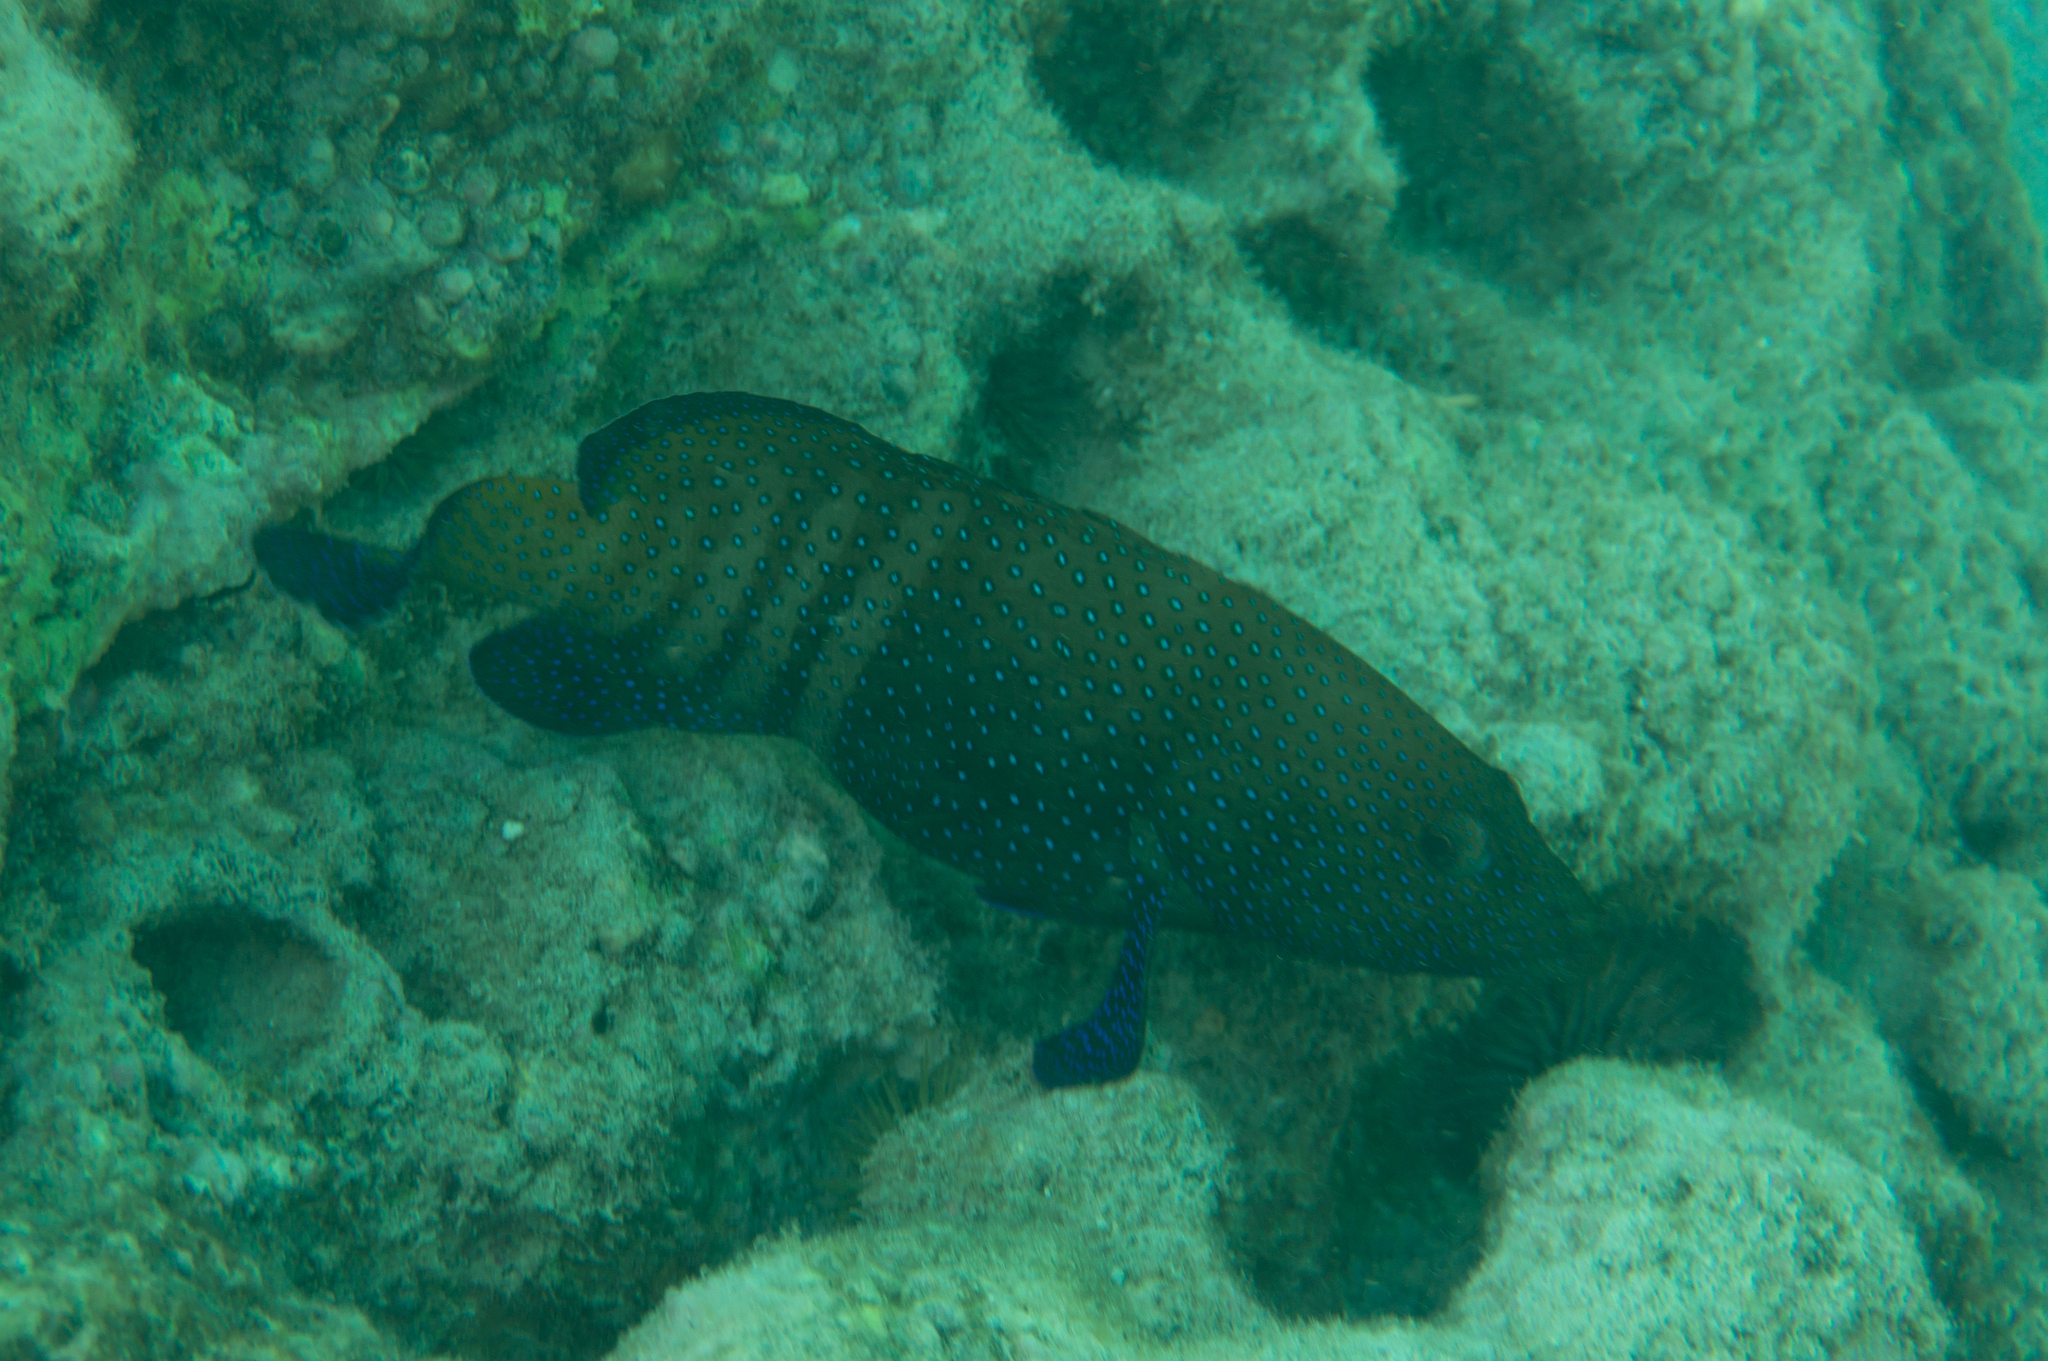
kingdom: Animalia
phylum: Chordata
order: Perciformes
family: Serranidae
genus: Cephalopholis
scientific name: Cephalopholis argus
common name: Peacock grouper
